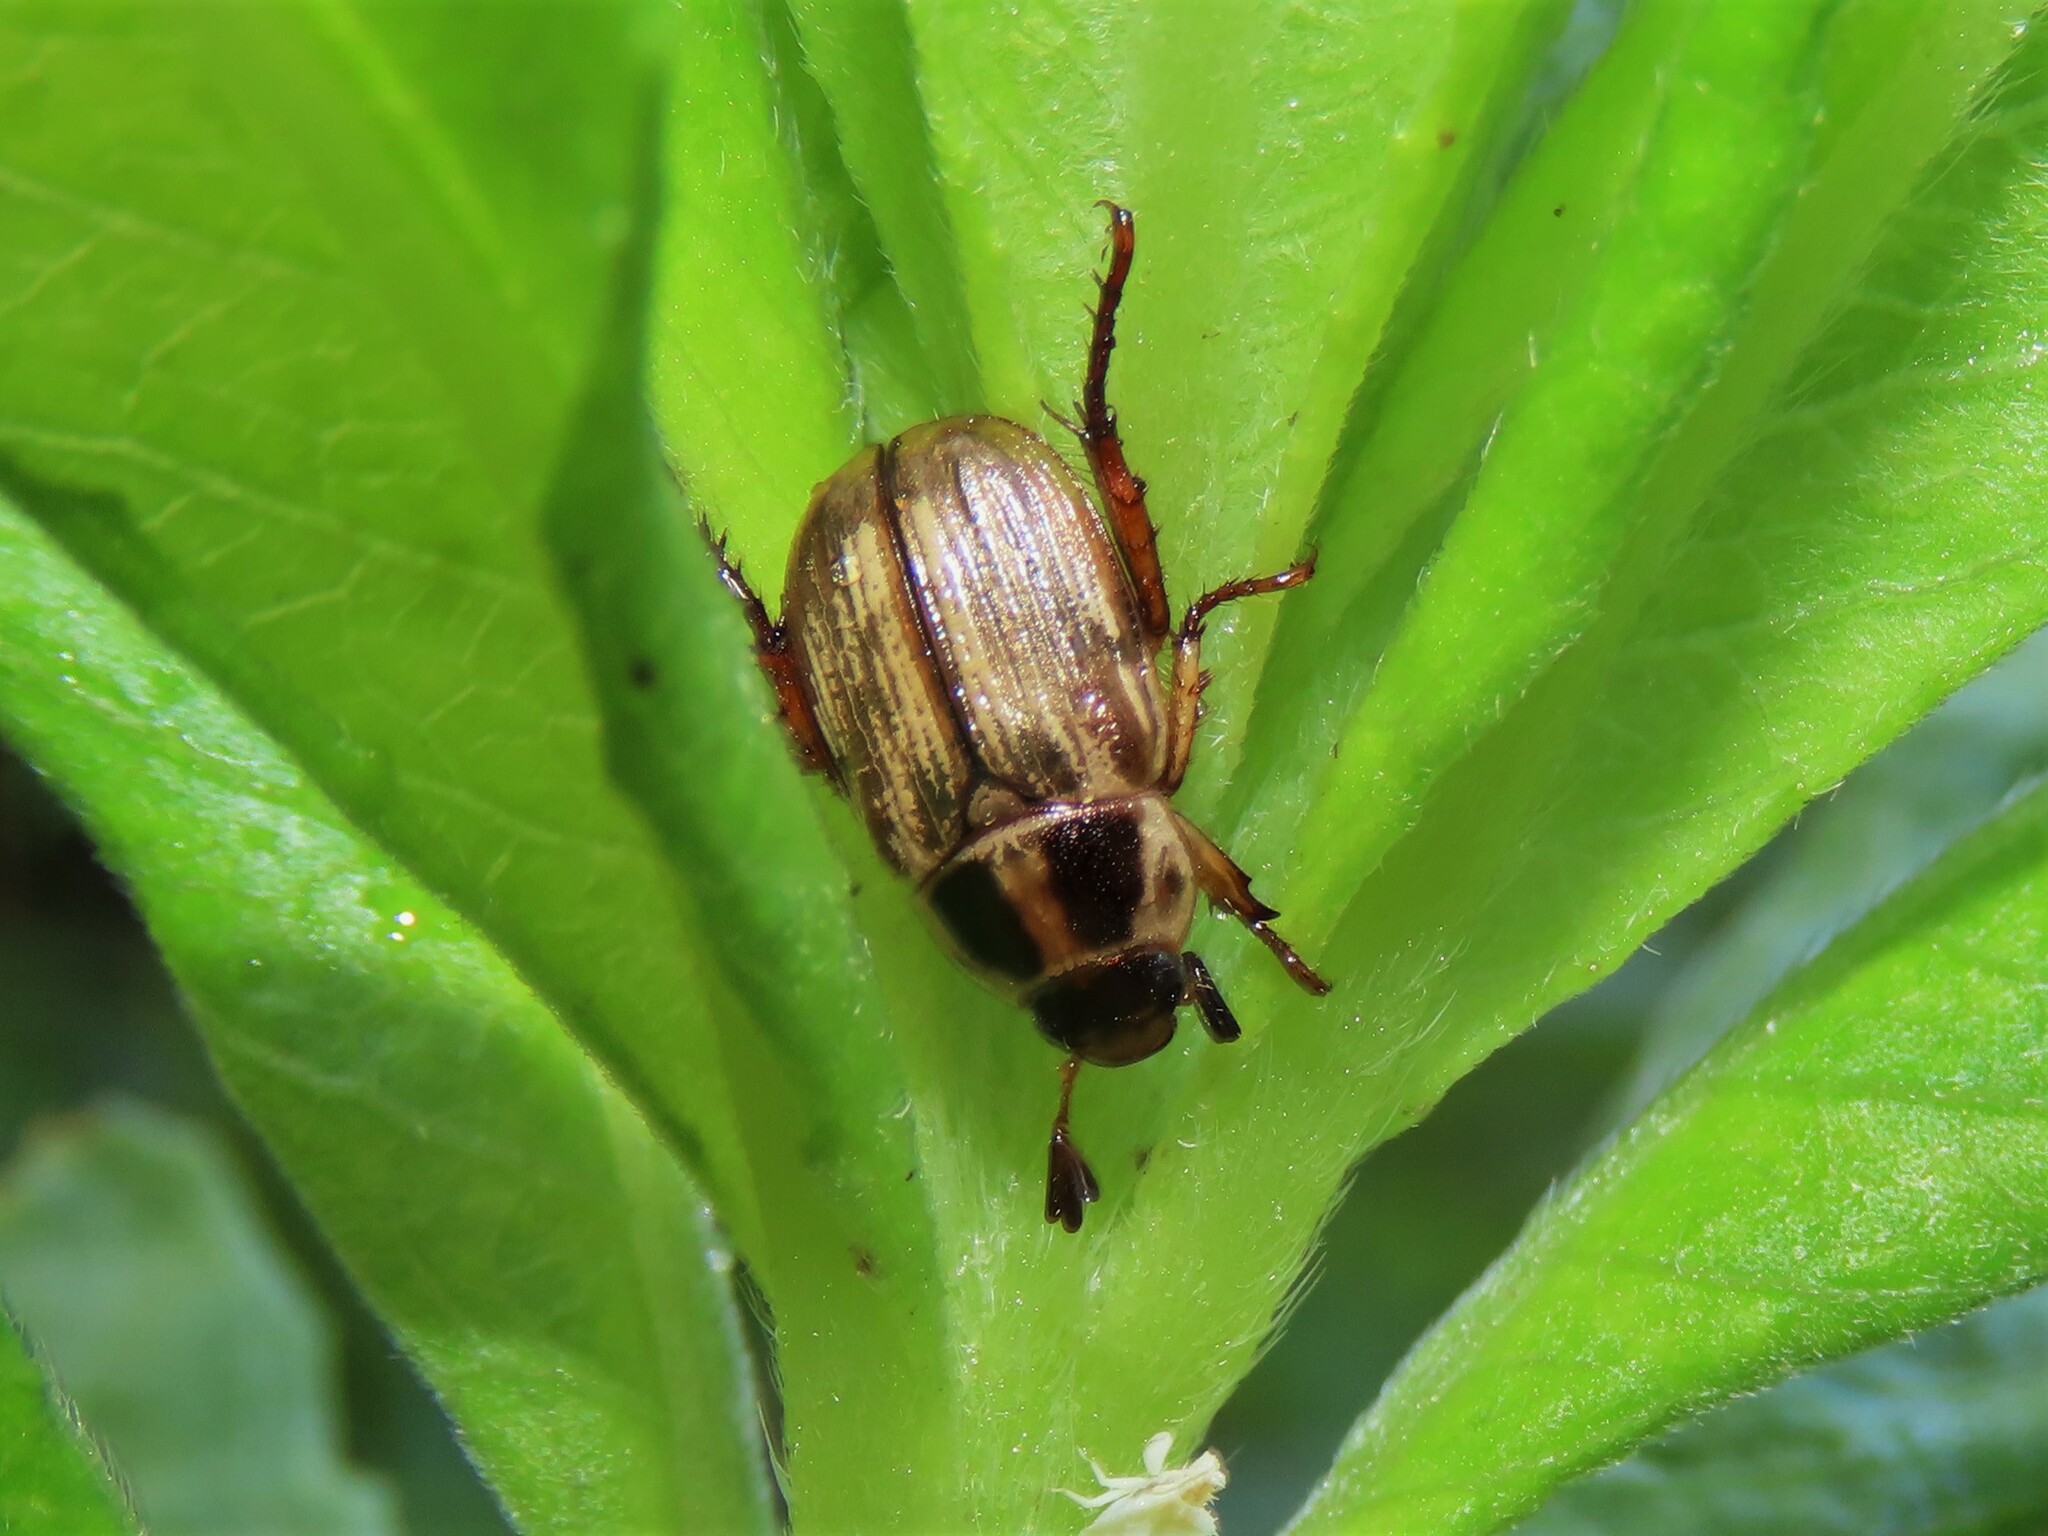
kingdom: Animalia
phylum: Arthropoda
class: Insecta
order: Coleoptera
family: Scarabaeidae
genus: Exomala
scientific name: Exomala orientalis
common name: Oriental beetle
